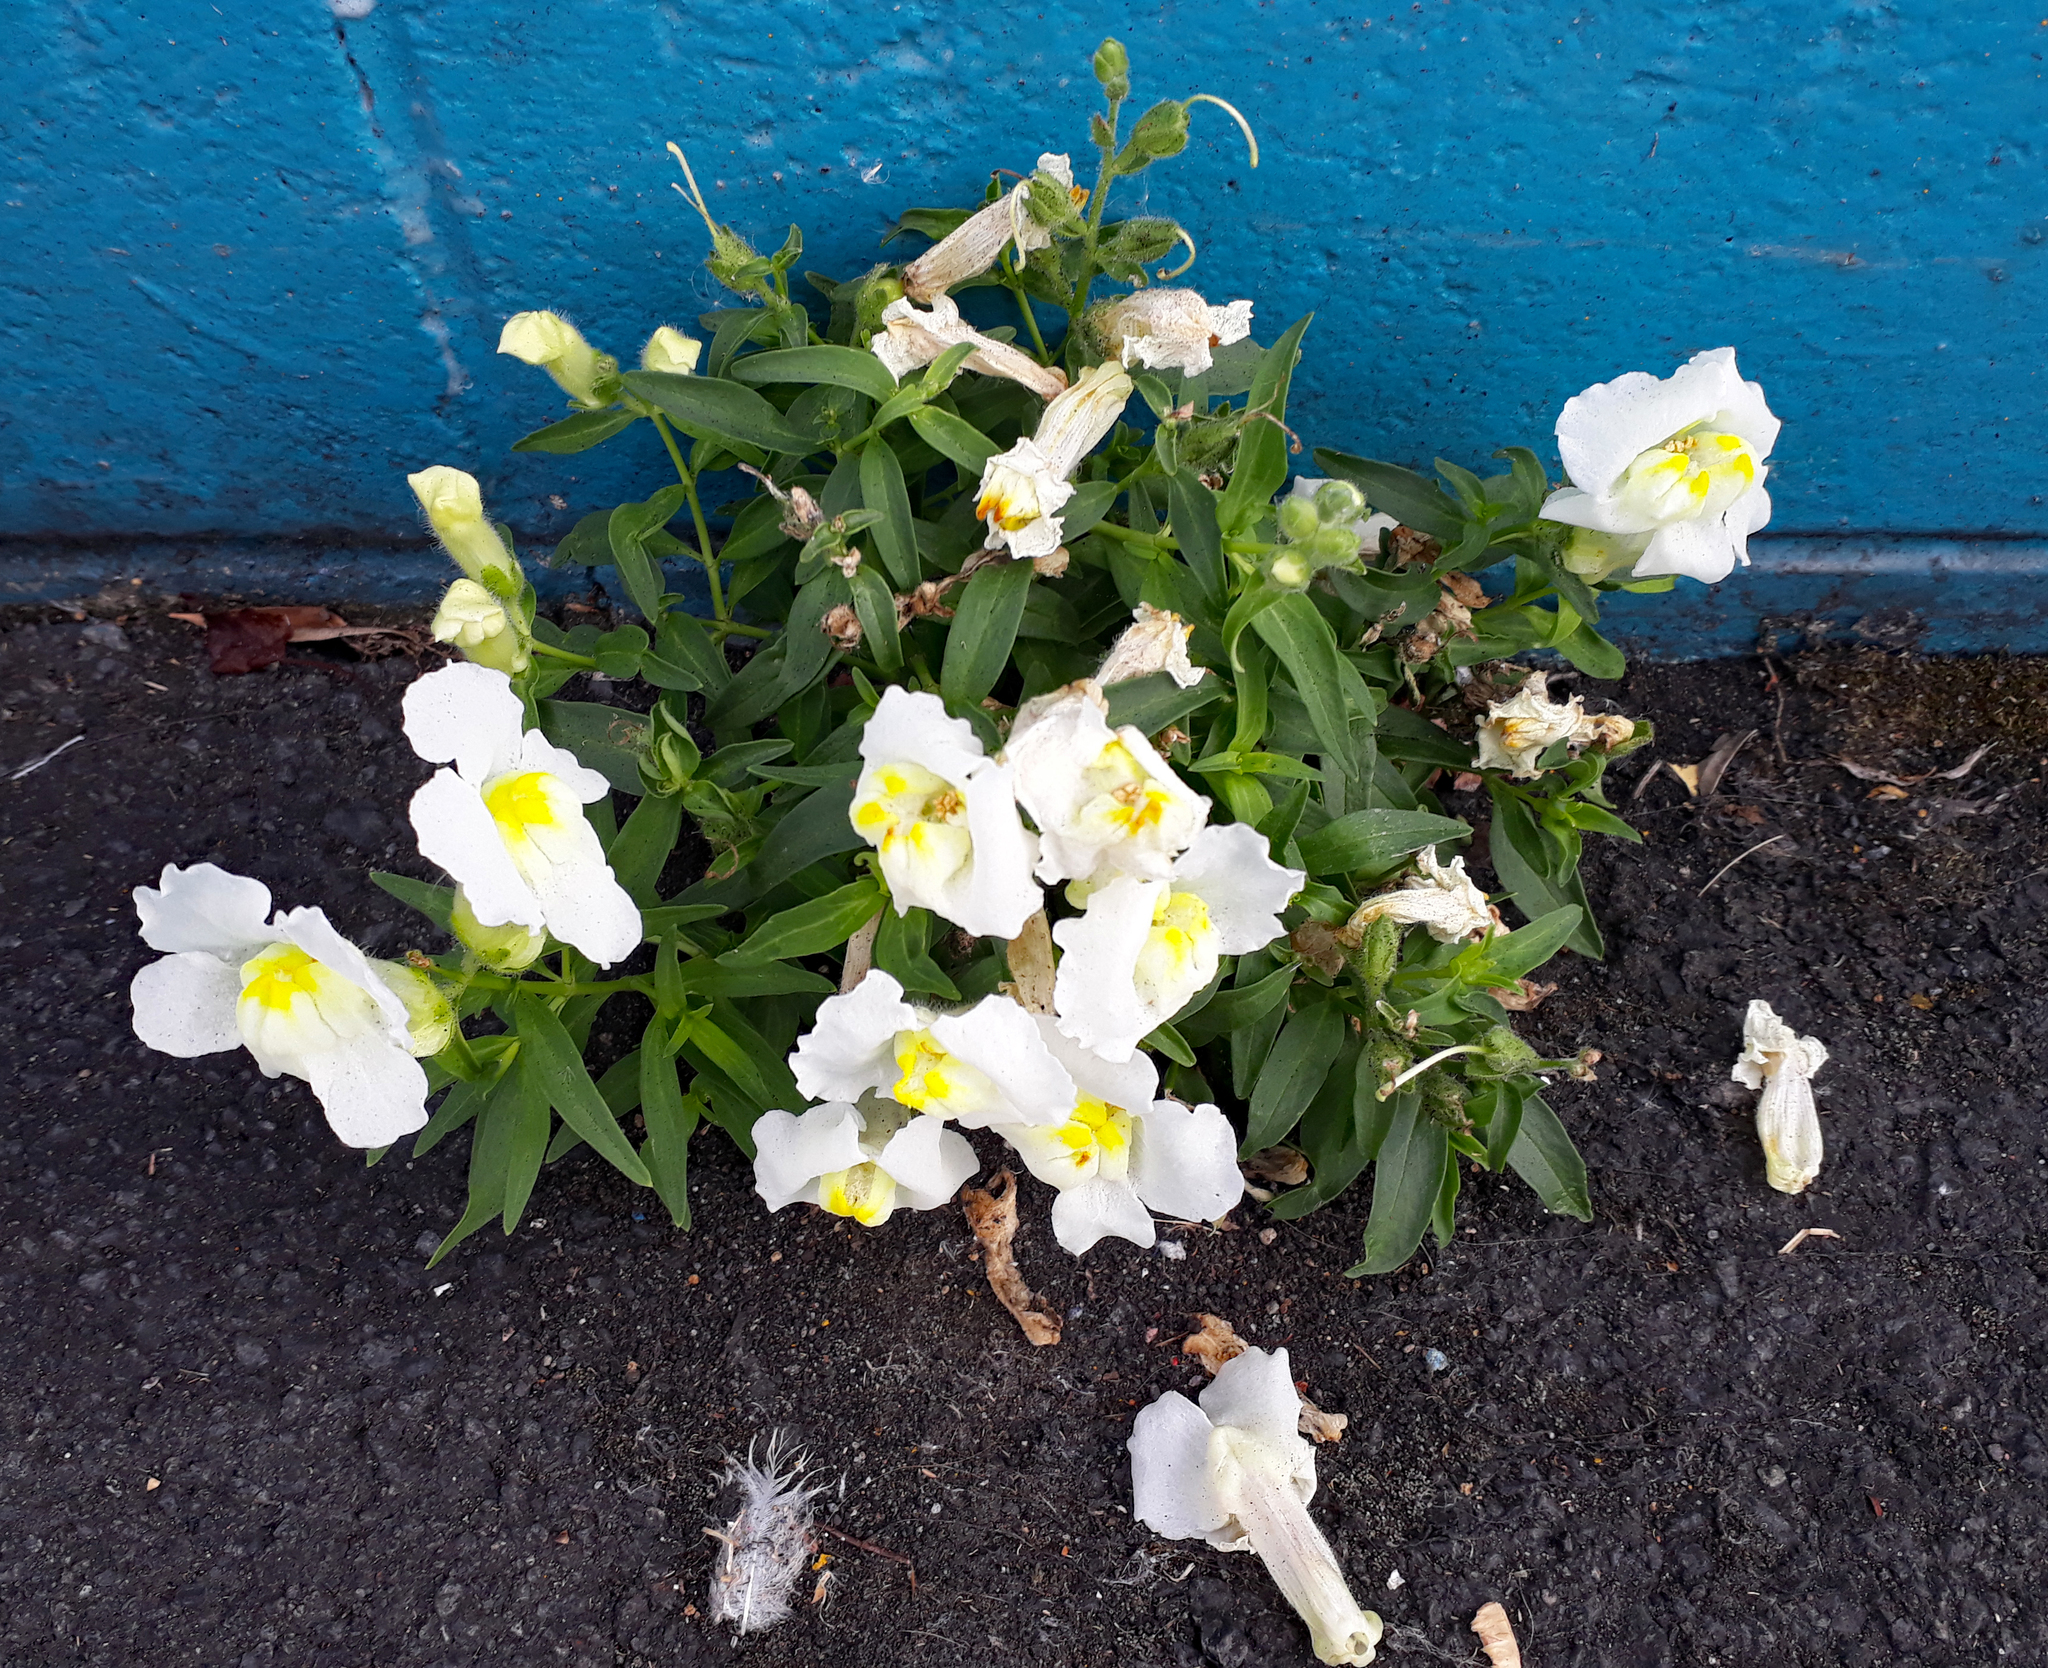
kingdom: Plantae
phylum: Tracheophyta
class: Magnoliopsida
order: Lamiales
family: Plantaginaceae
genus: Antirrhinum
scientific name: Antirrhinum majus
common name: Snapdragon
